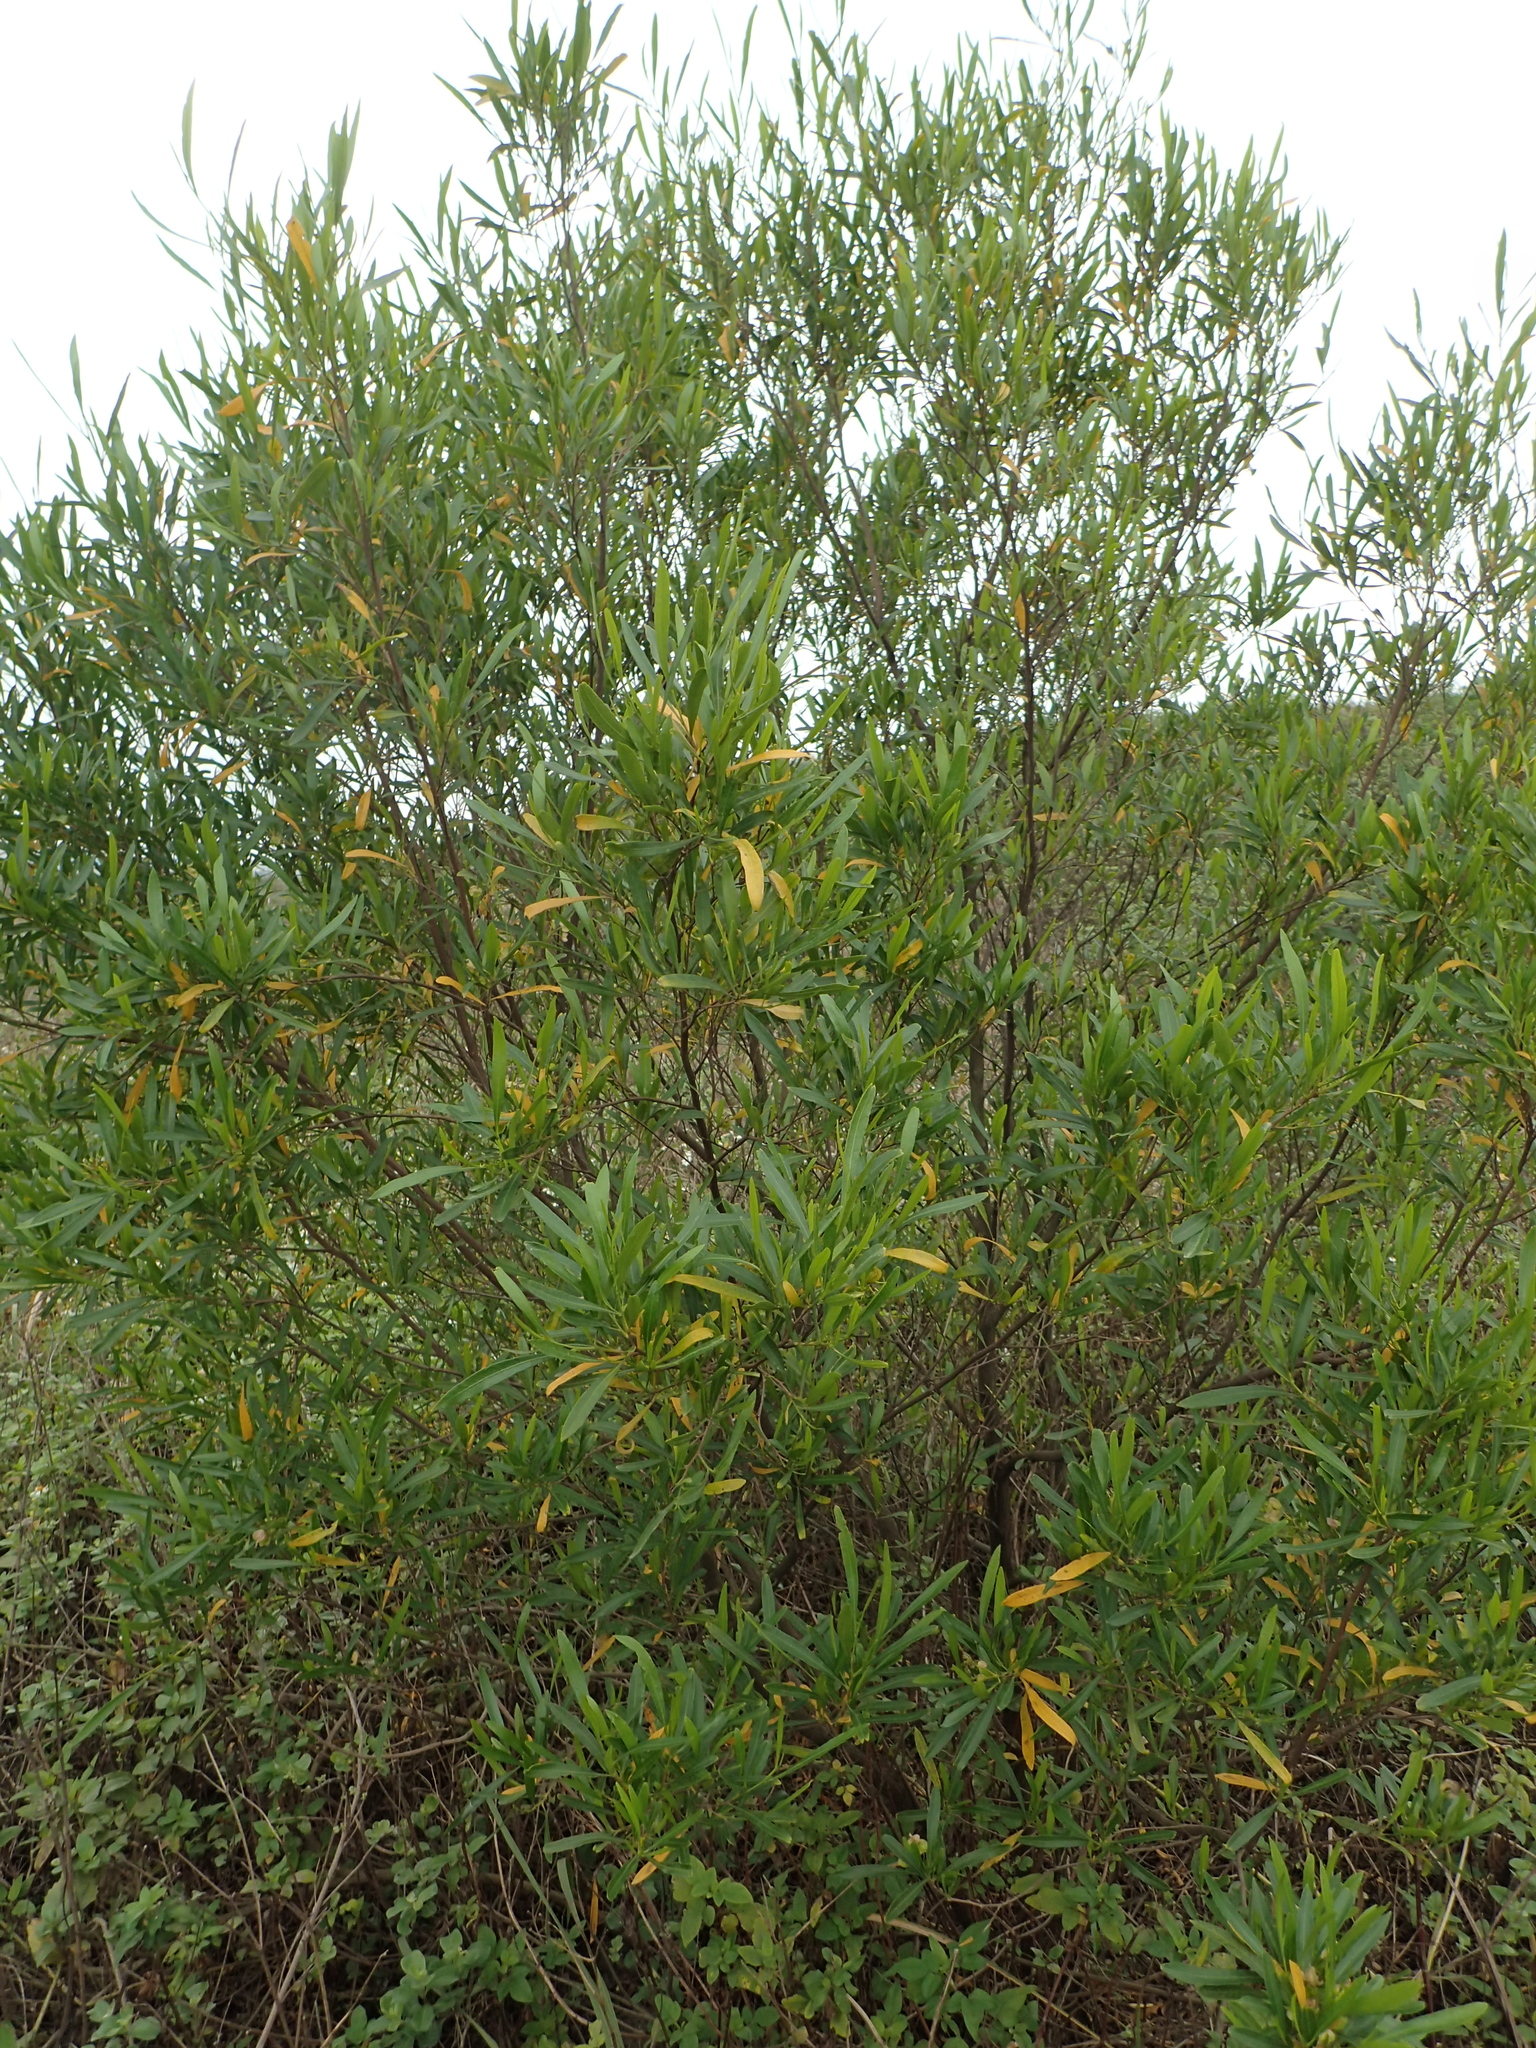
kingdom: Plantae
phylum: Tracheophyta
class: Magnoliopsida
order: Sapindales
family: Sapindaceae
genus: Dodonaea
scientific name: Dodonaea viscosa
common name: Hopbush
